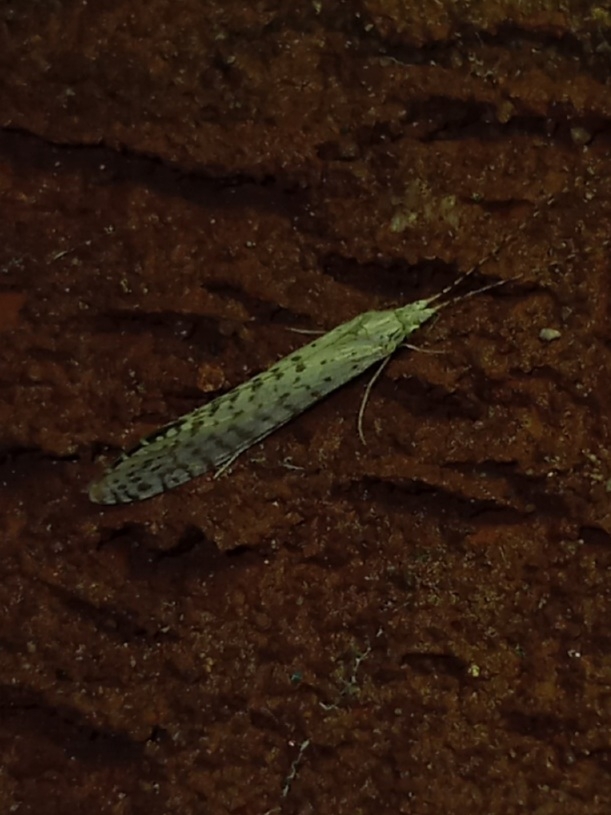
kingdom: Animalia
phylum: Arthropoda
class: Insecta
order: Trichoptera
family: Leptoceridae
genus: Nectopsyche
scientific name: Nectopsyche candida
